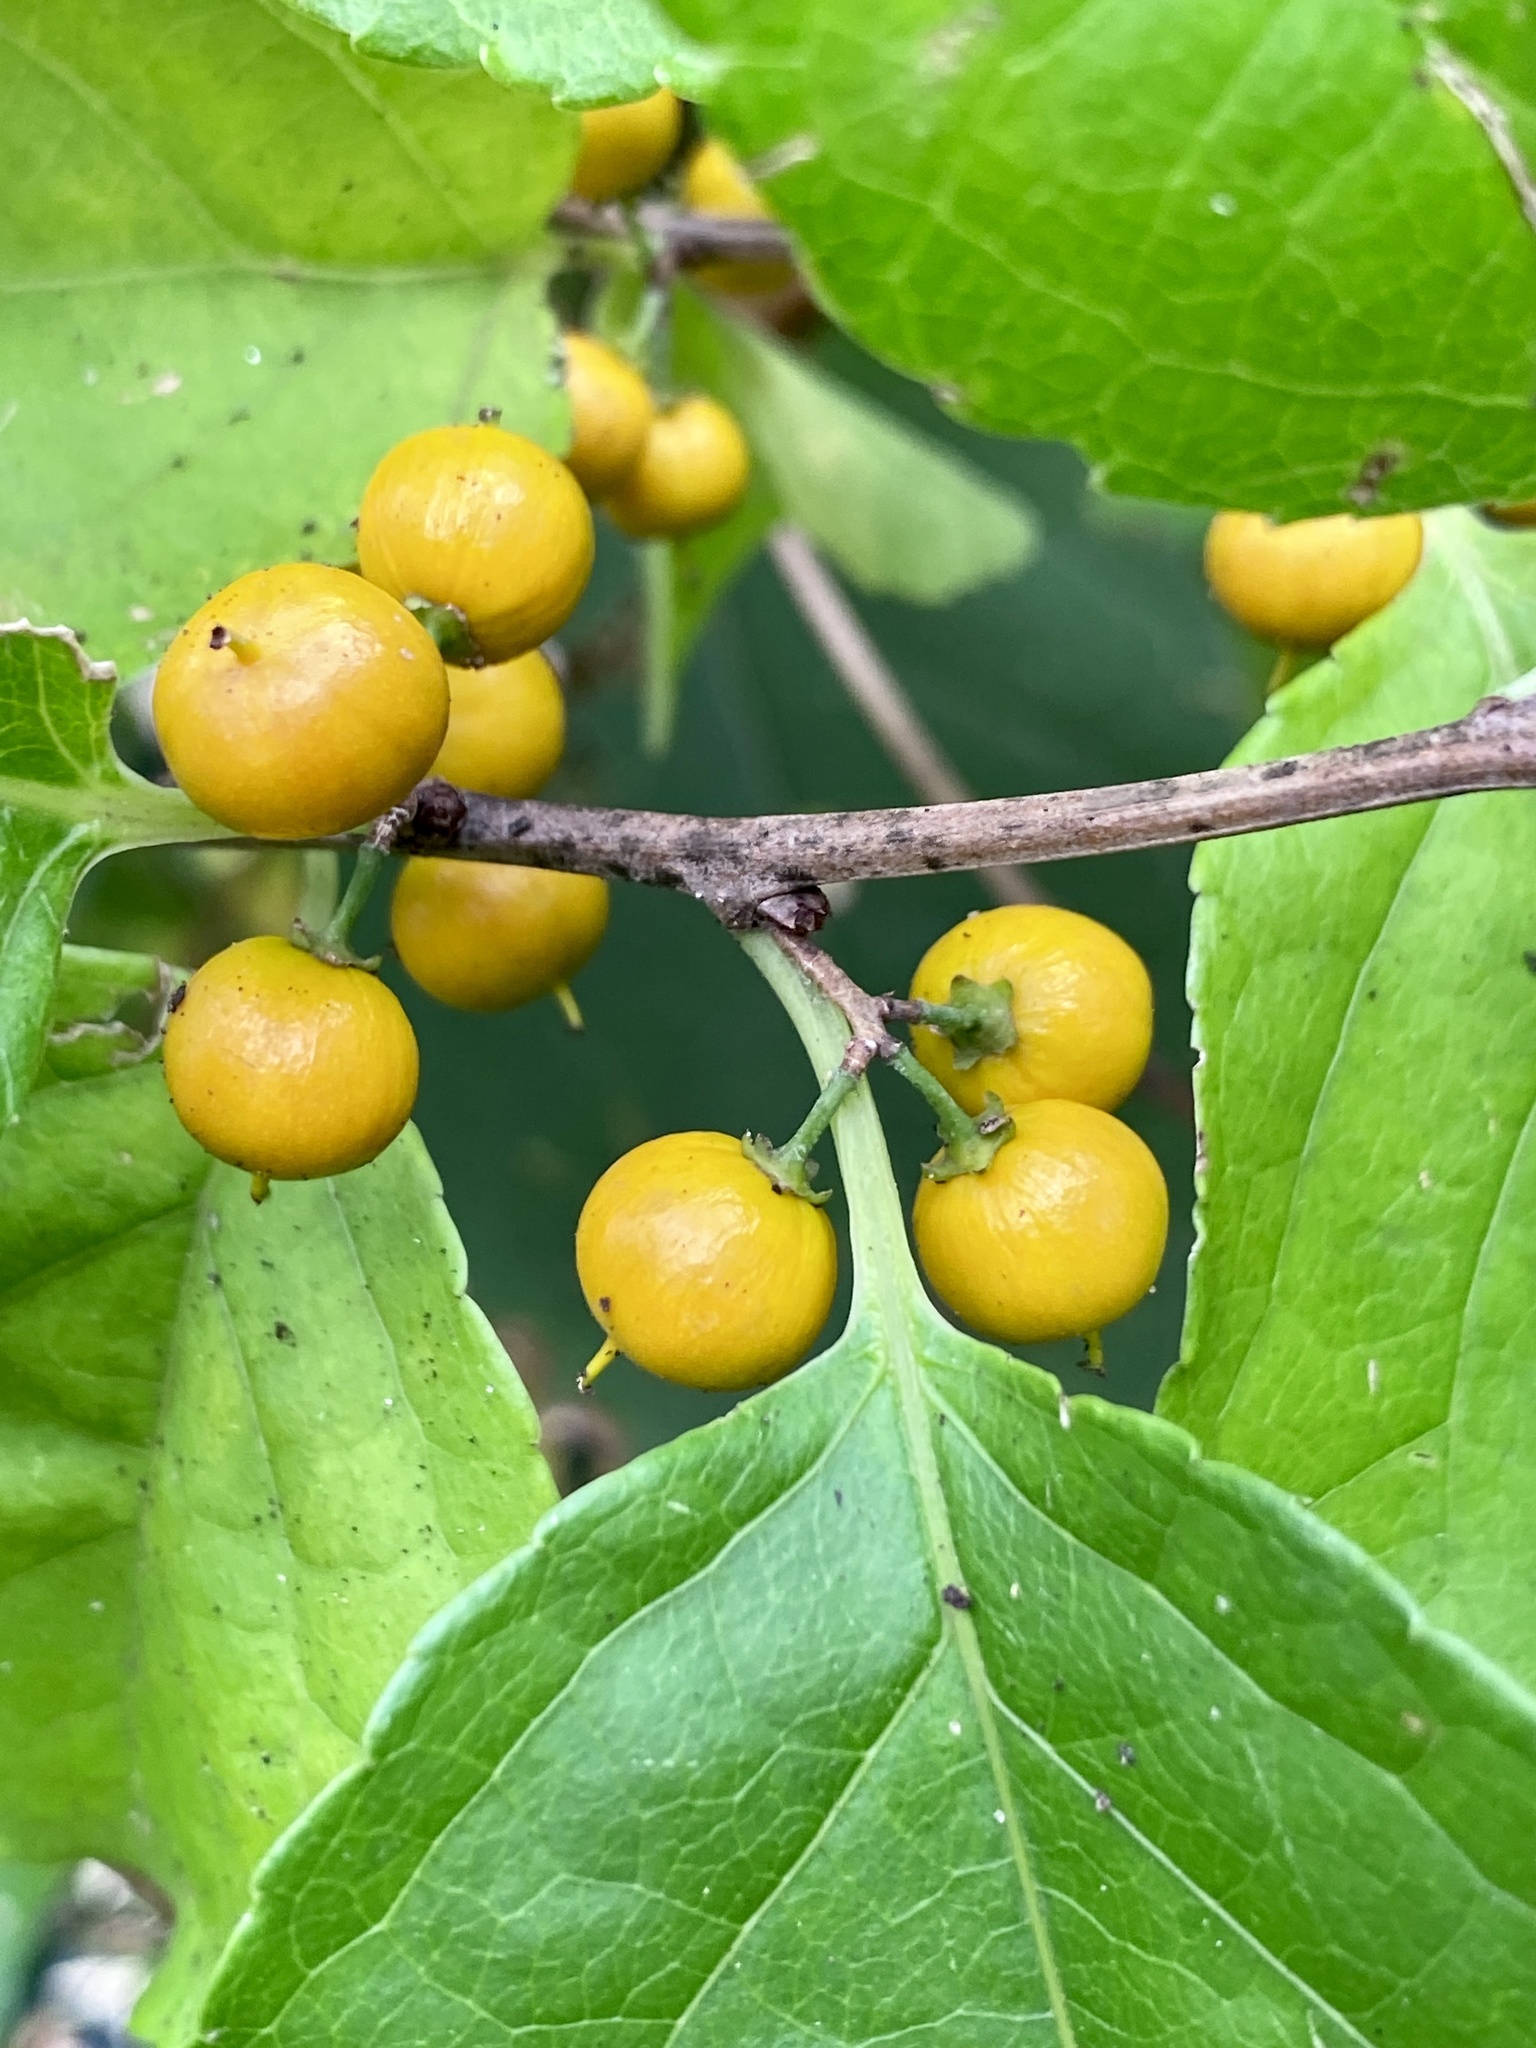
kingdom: Plantae
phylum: Tracheophyta
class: Magnoliopsida
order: Celastrales
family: Celastraceae
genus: Celastrus
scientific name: Celastrus orbiculatus
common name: Oriental bittersweet
